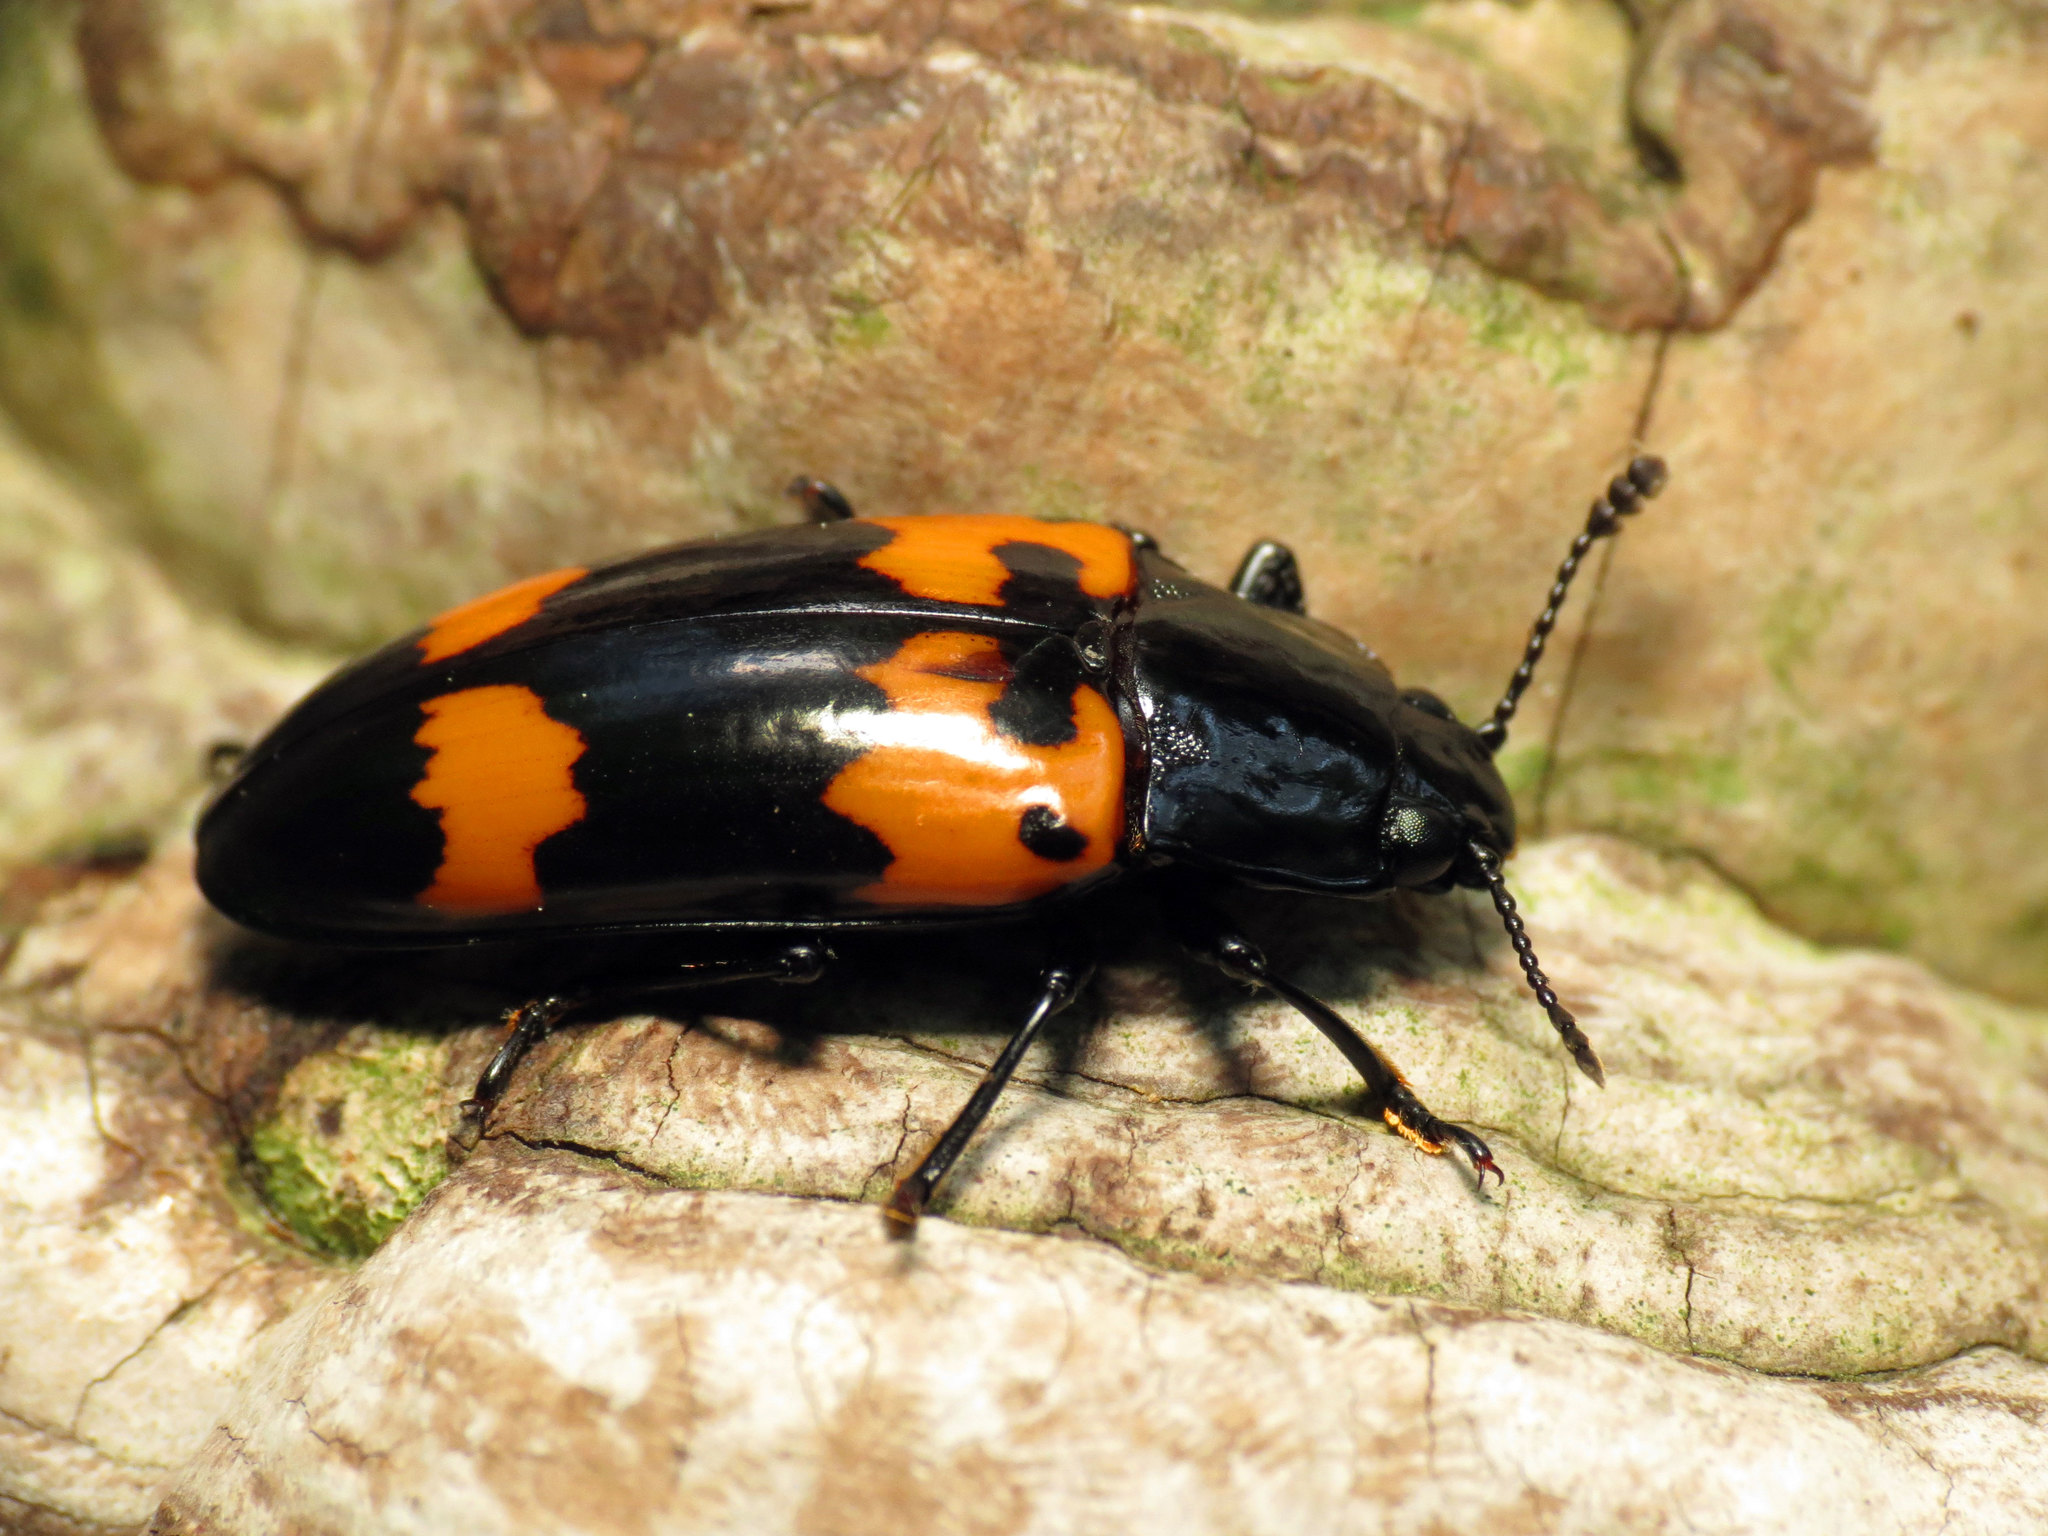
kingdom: Animalia
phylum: Arthropoda
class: Insecta
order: Coleoptera
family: Erotylidae
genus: Megalodacne
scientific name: Megalodacne heros
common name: Pleasing fungus beetle
